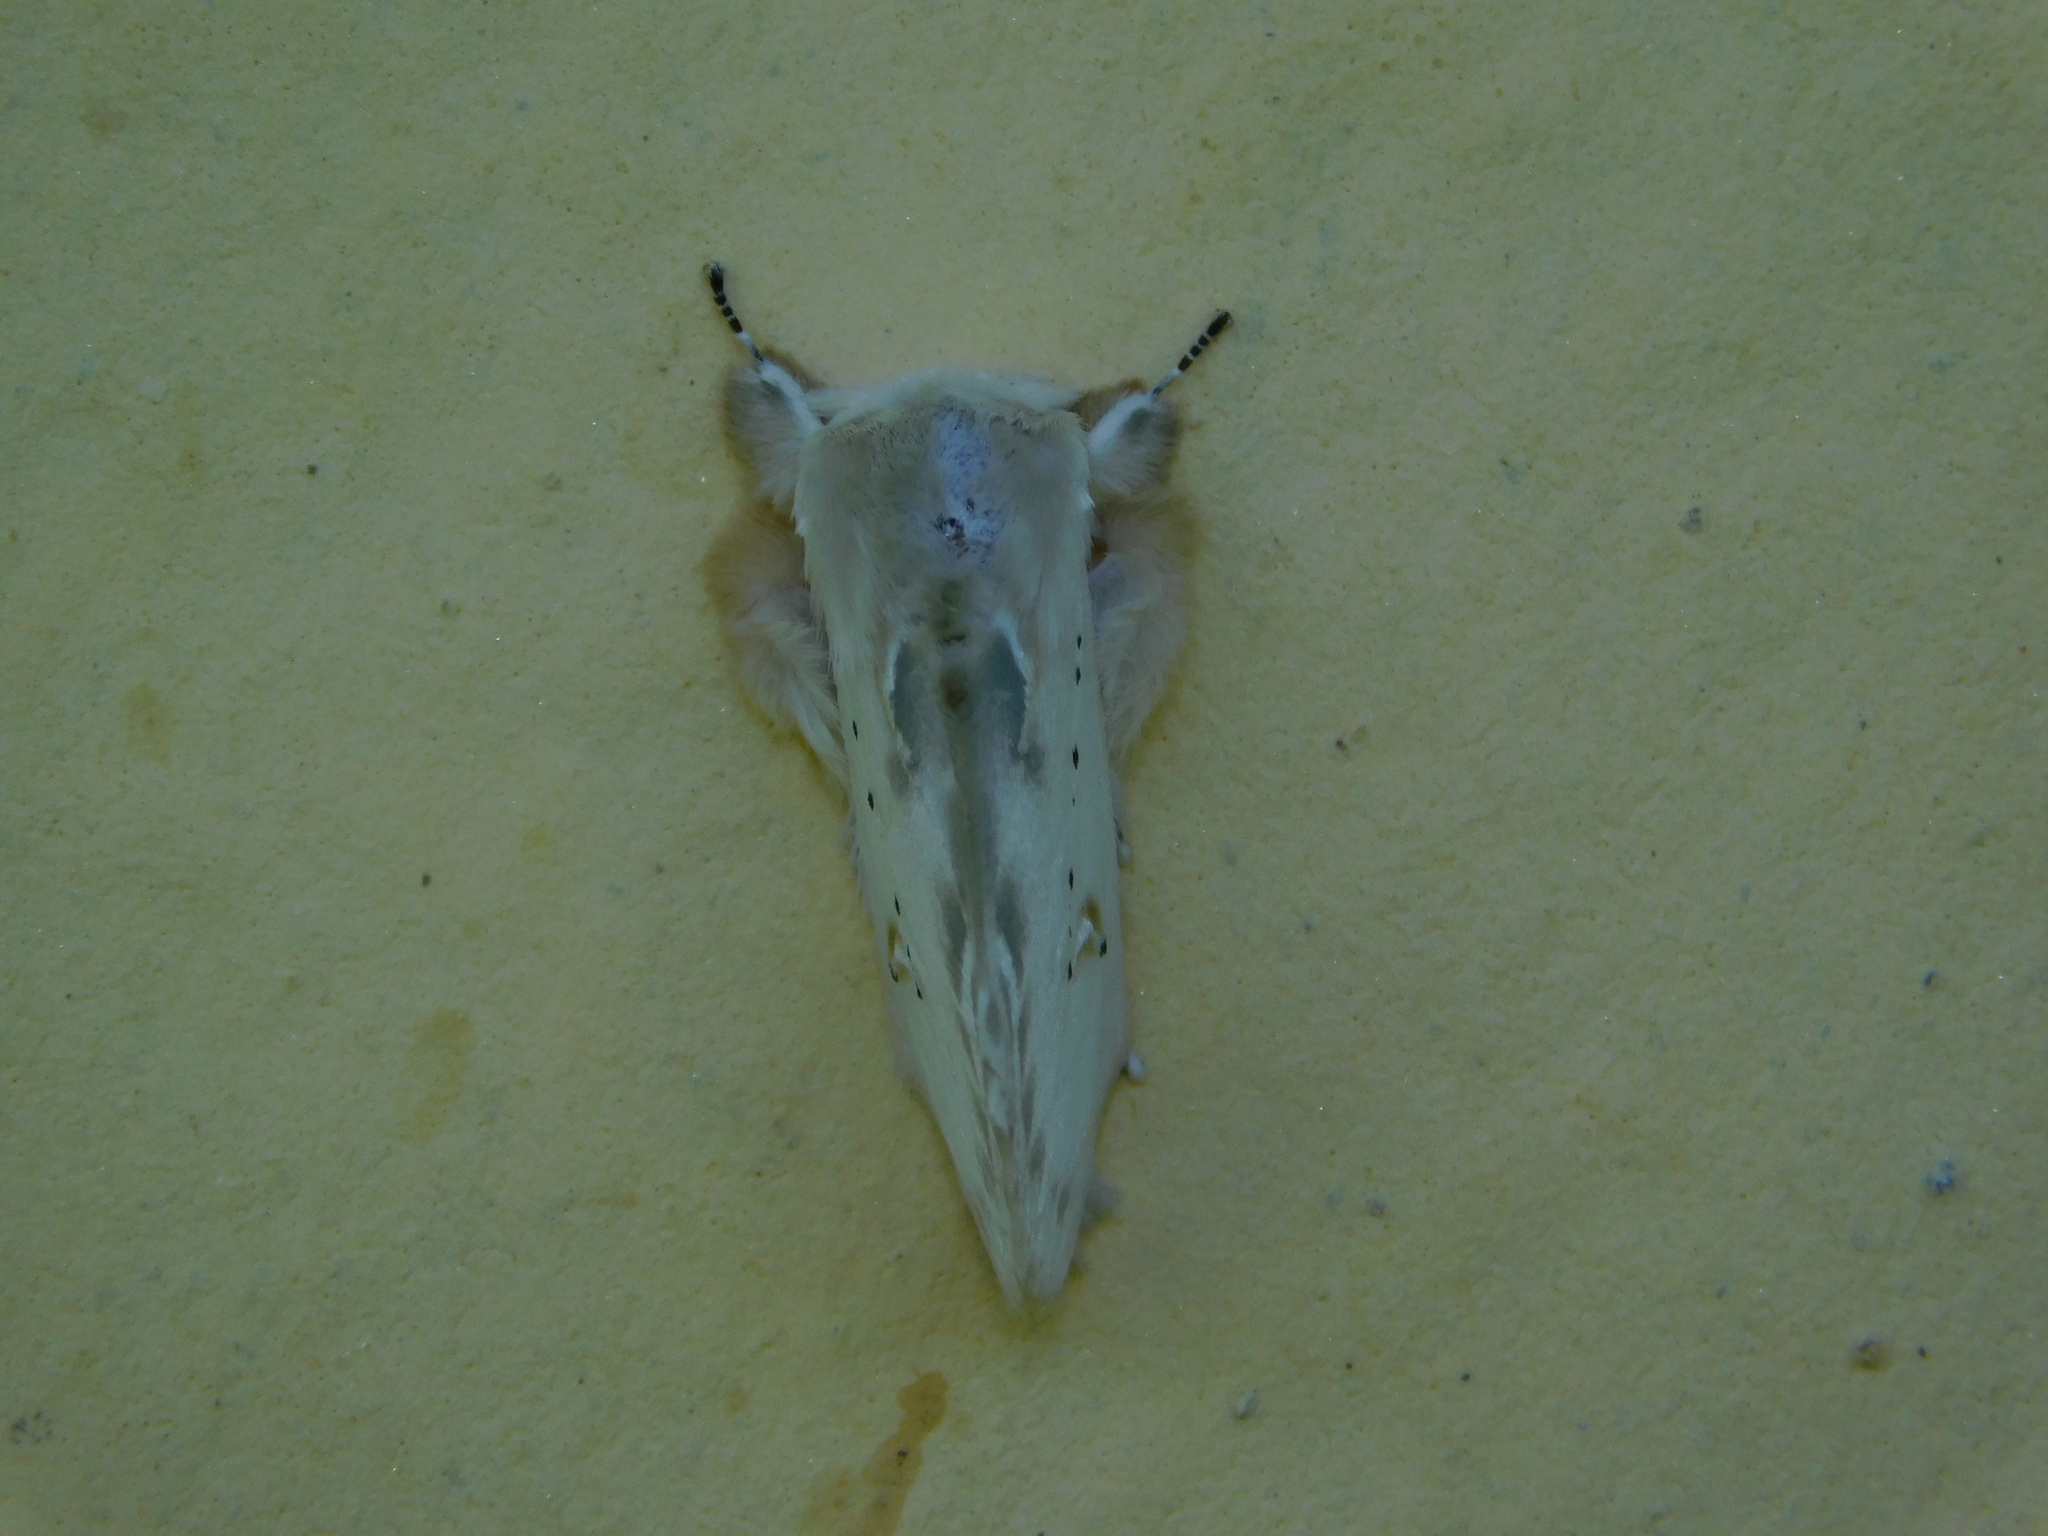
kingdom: Animalia
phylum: Arthropoda
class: Insecta
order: Lepidoptera
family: Erebidae
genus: Naroma
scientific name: Naroma varipes
